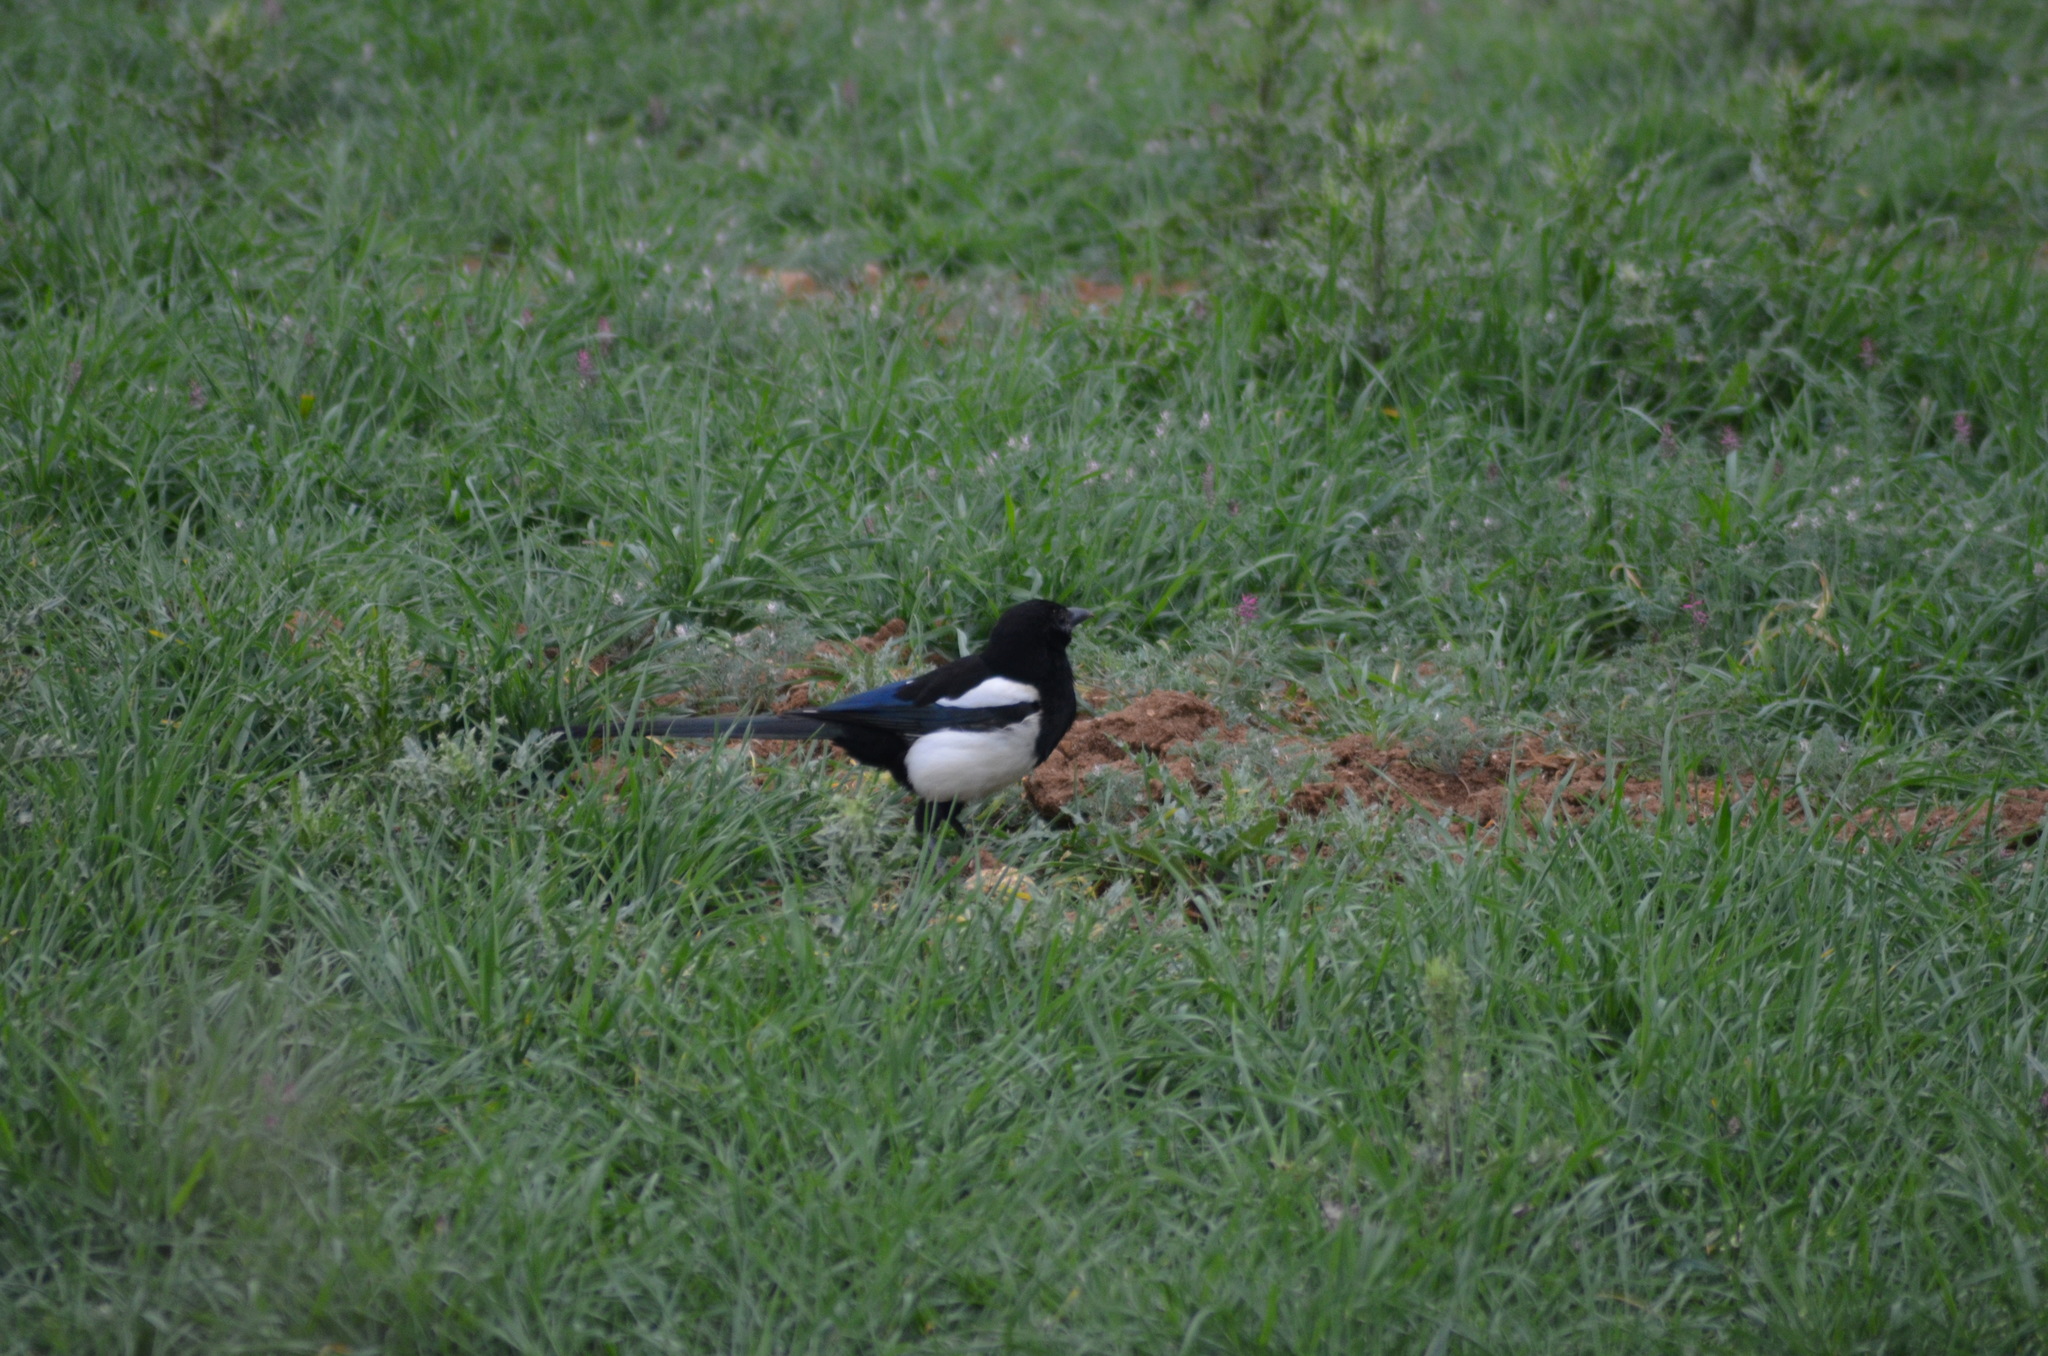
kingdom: Animalia
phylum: Chordata
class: Aves
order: Passeriformes
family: Corvidae
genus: Pica
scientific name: Pica pica
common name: Eurasian magpie
